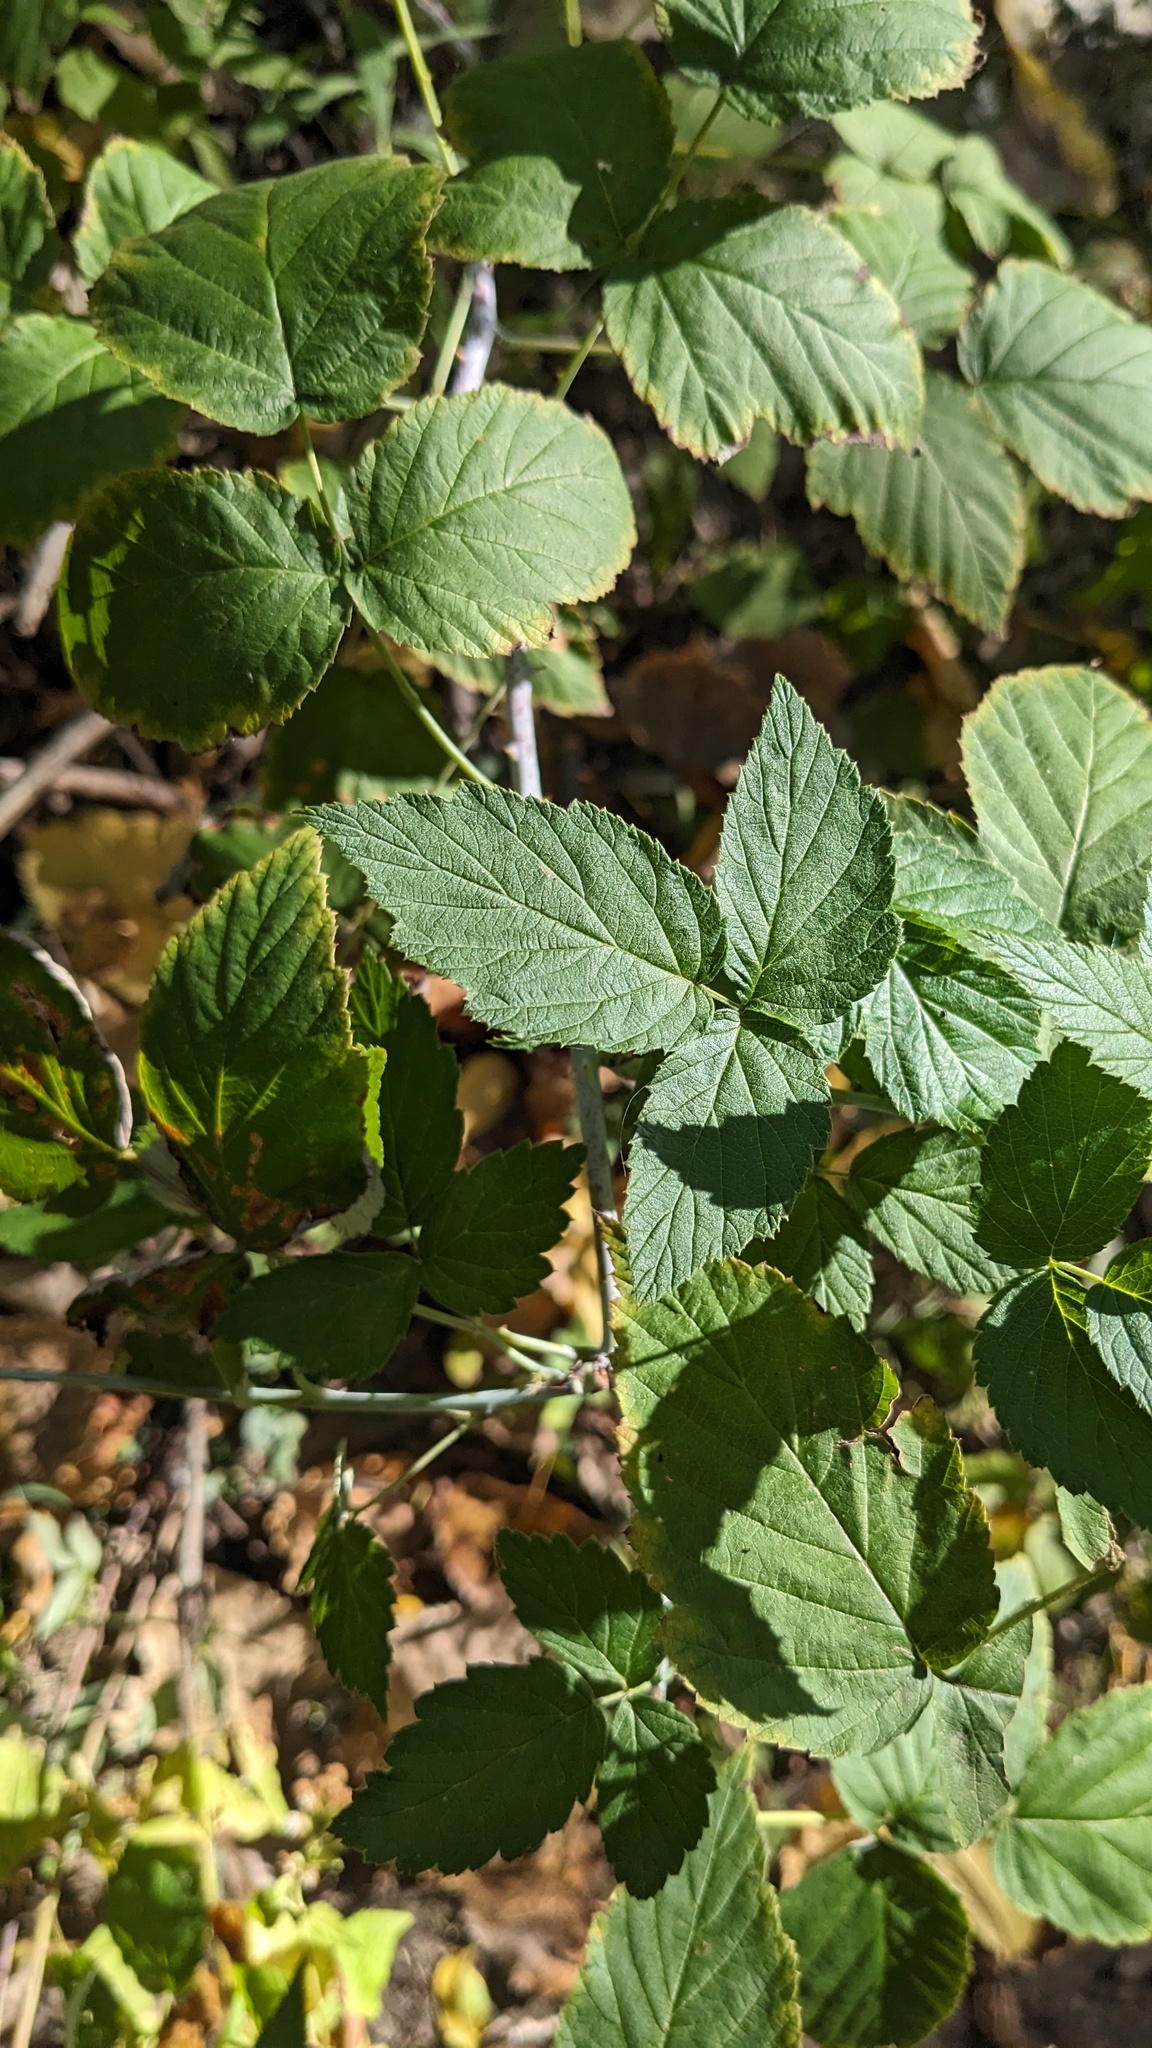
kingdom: Plantae
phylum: Tracheophyta
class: Magnoliopsida
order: Rosales
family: Rosaceae
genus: Rubus
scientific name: Rubus occidentalis
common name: Black raspberry
